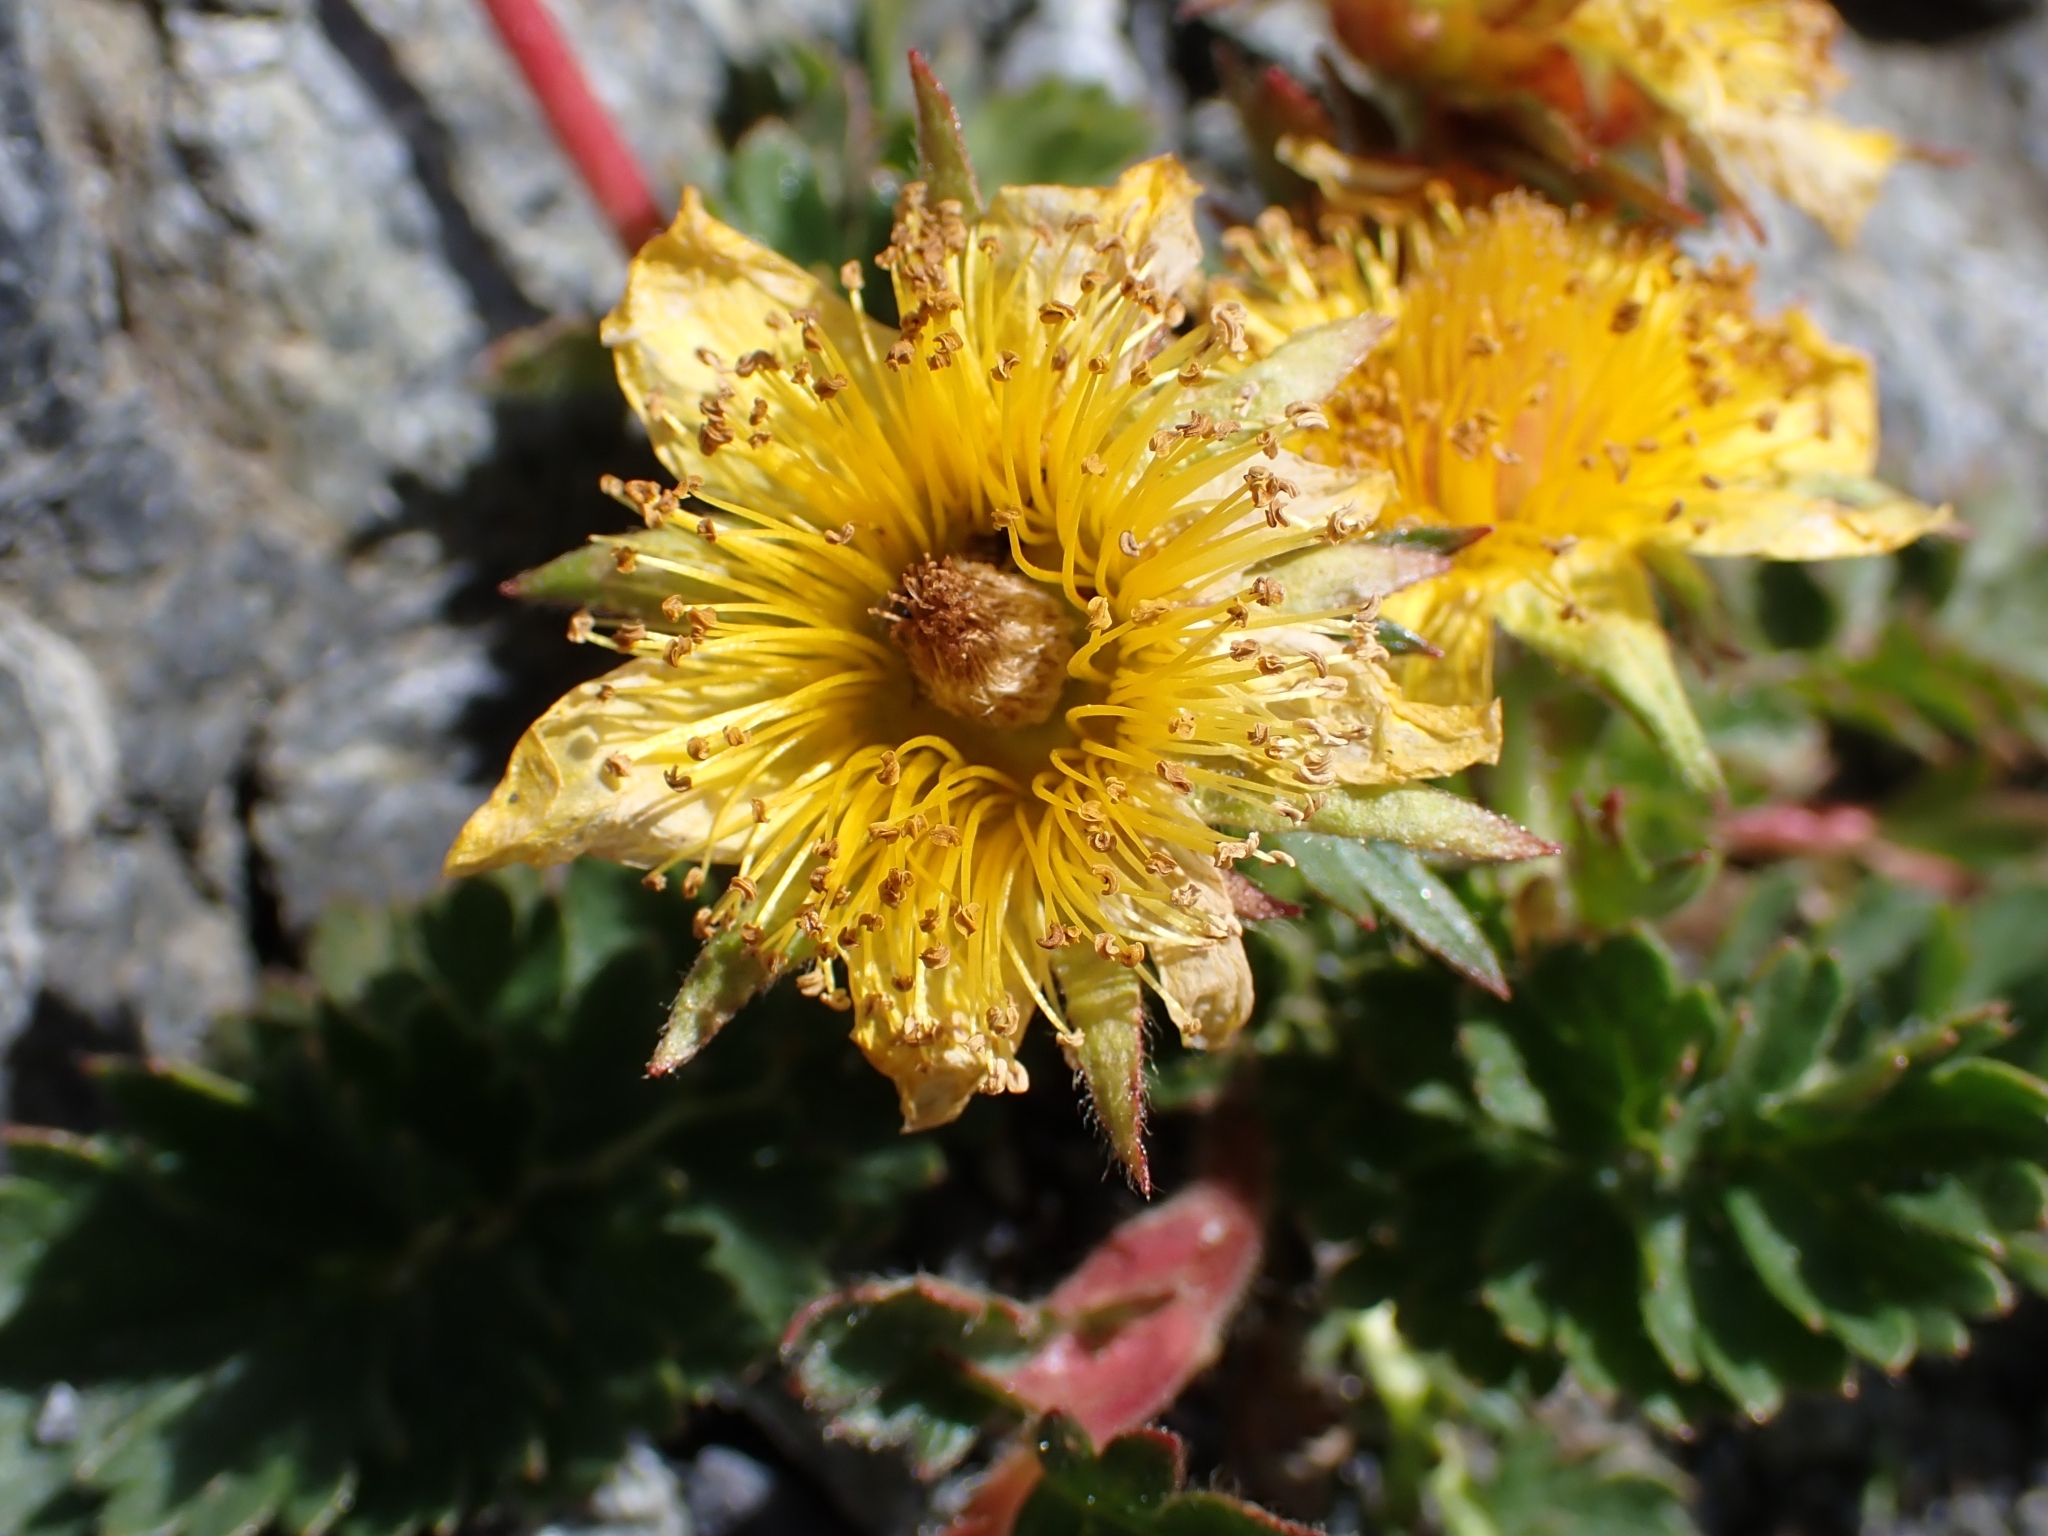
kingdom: Plantae
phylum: Tracheophyta
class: Magnoliopsida
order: Rosales
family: Rosaceae
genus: Geum
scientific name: Geum reptans
